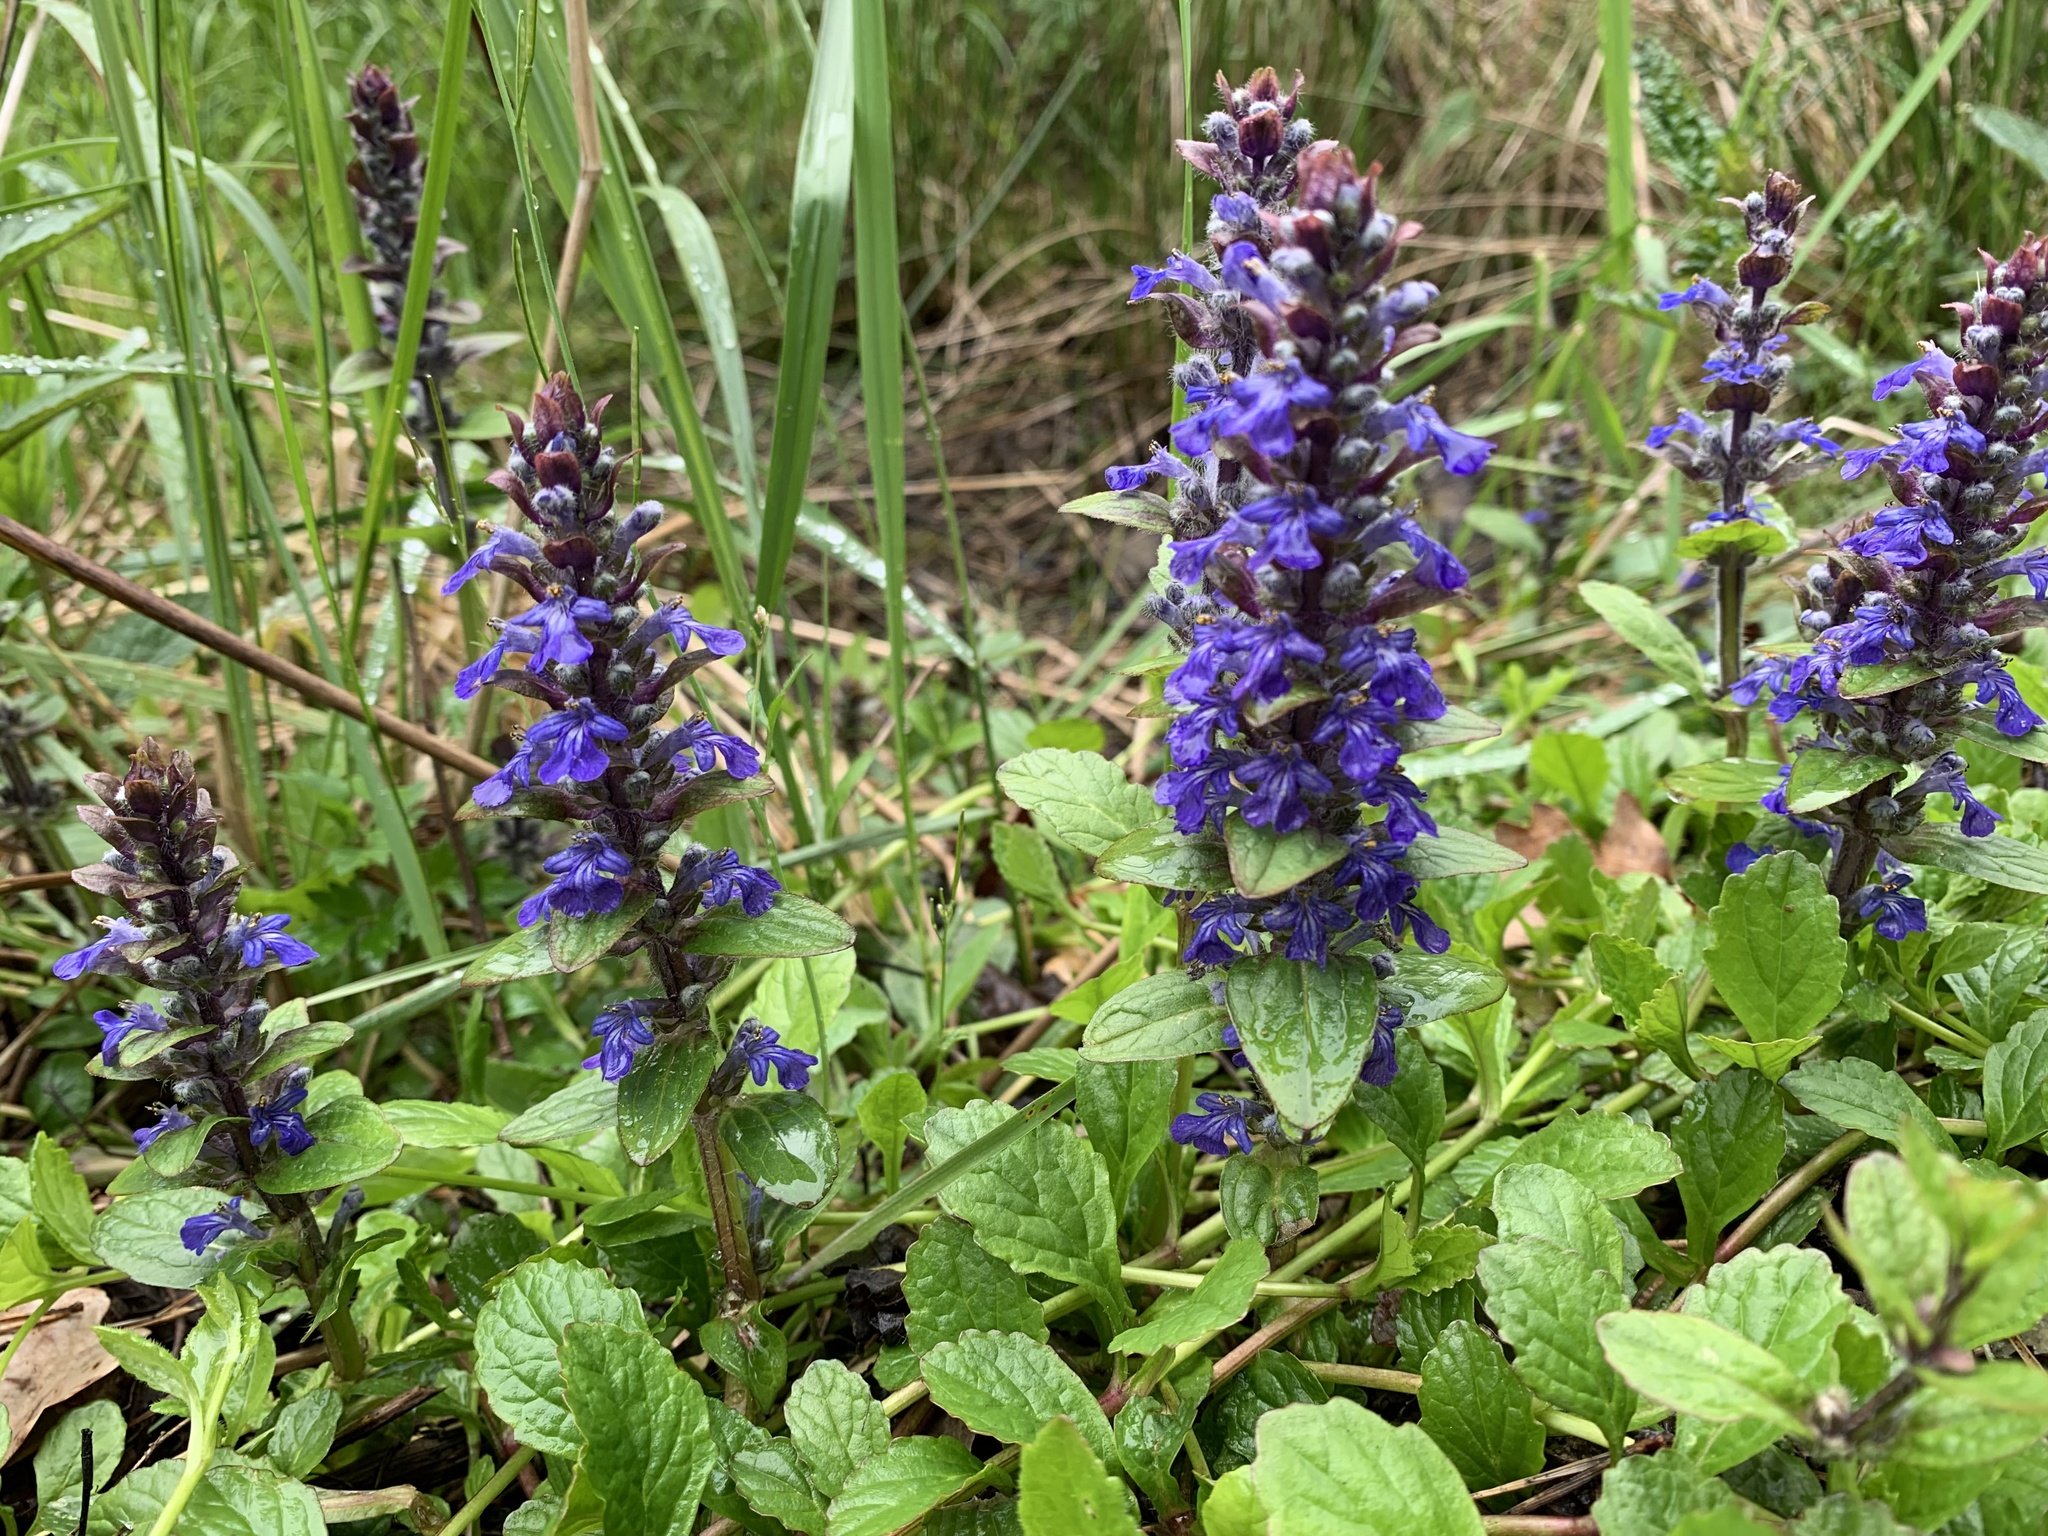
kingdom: Plantae
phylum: Tracheophyta
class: Magnoliopsida
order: Lamiales
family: Lamiaceae
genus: Ajuga
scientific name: Ajuga reptans
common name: Bugle
